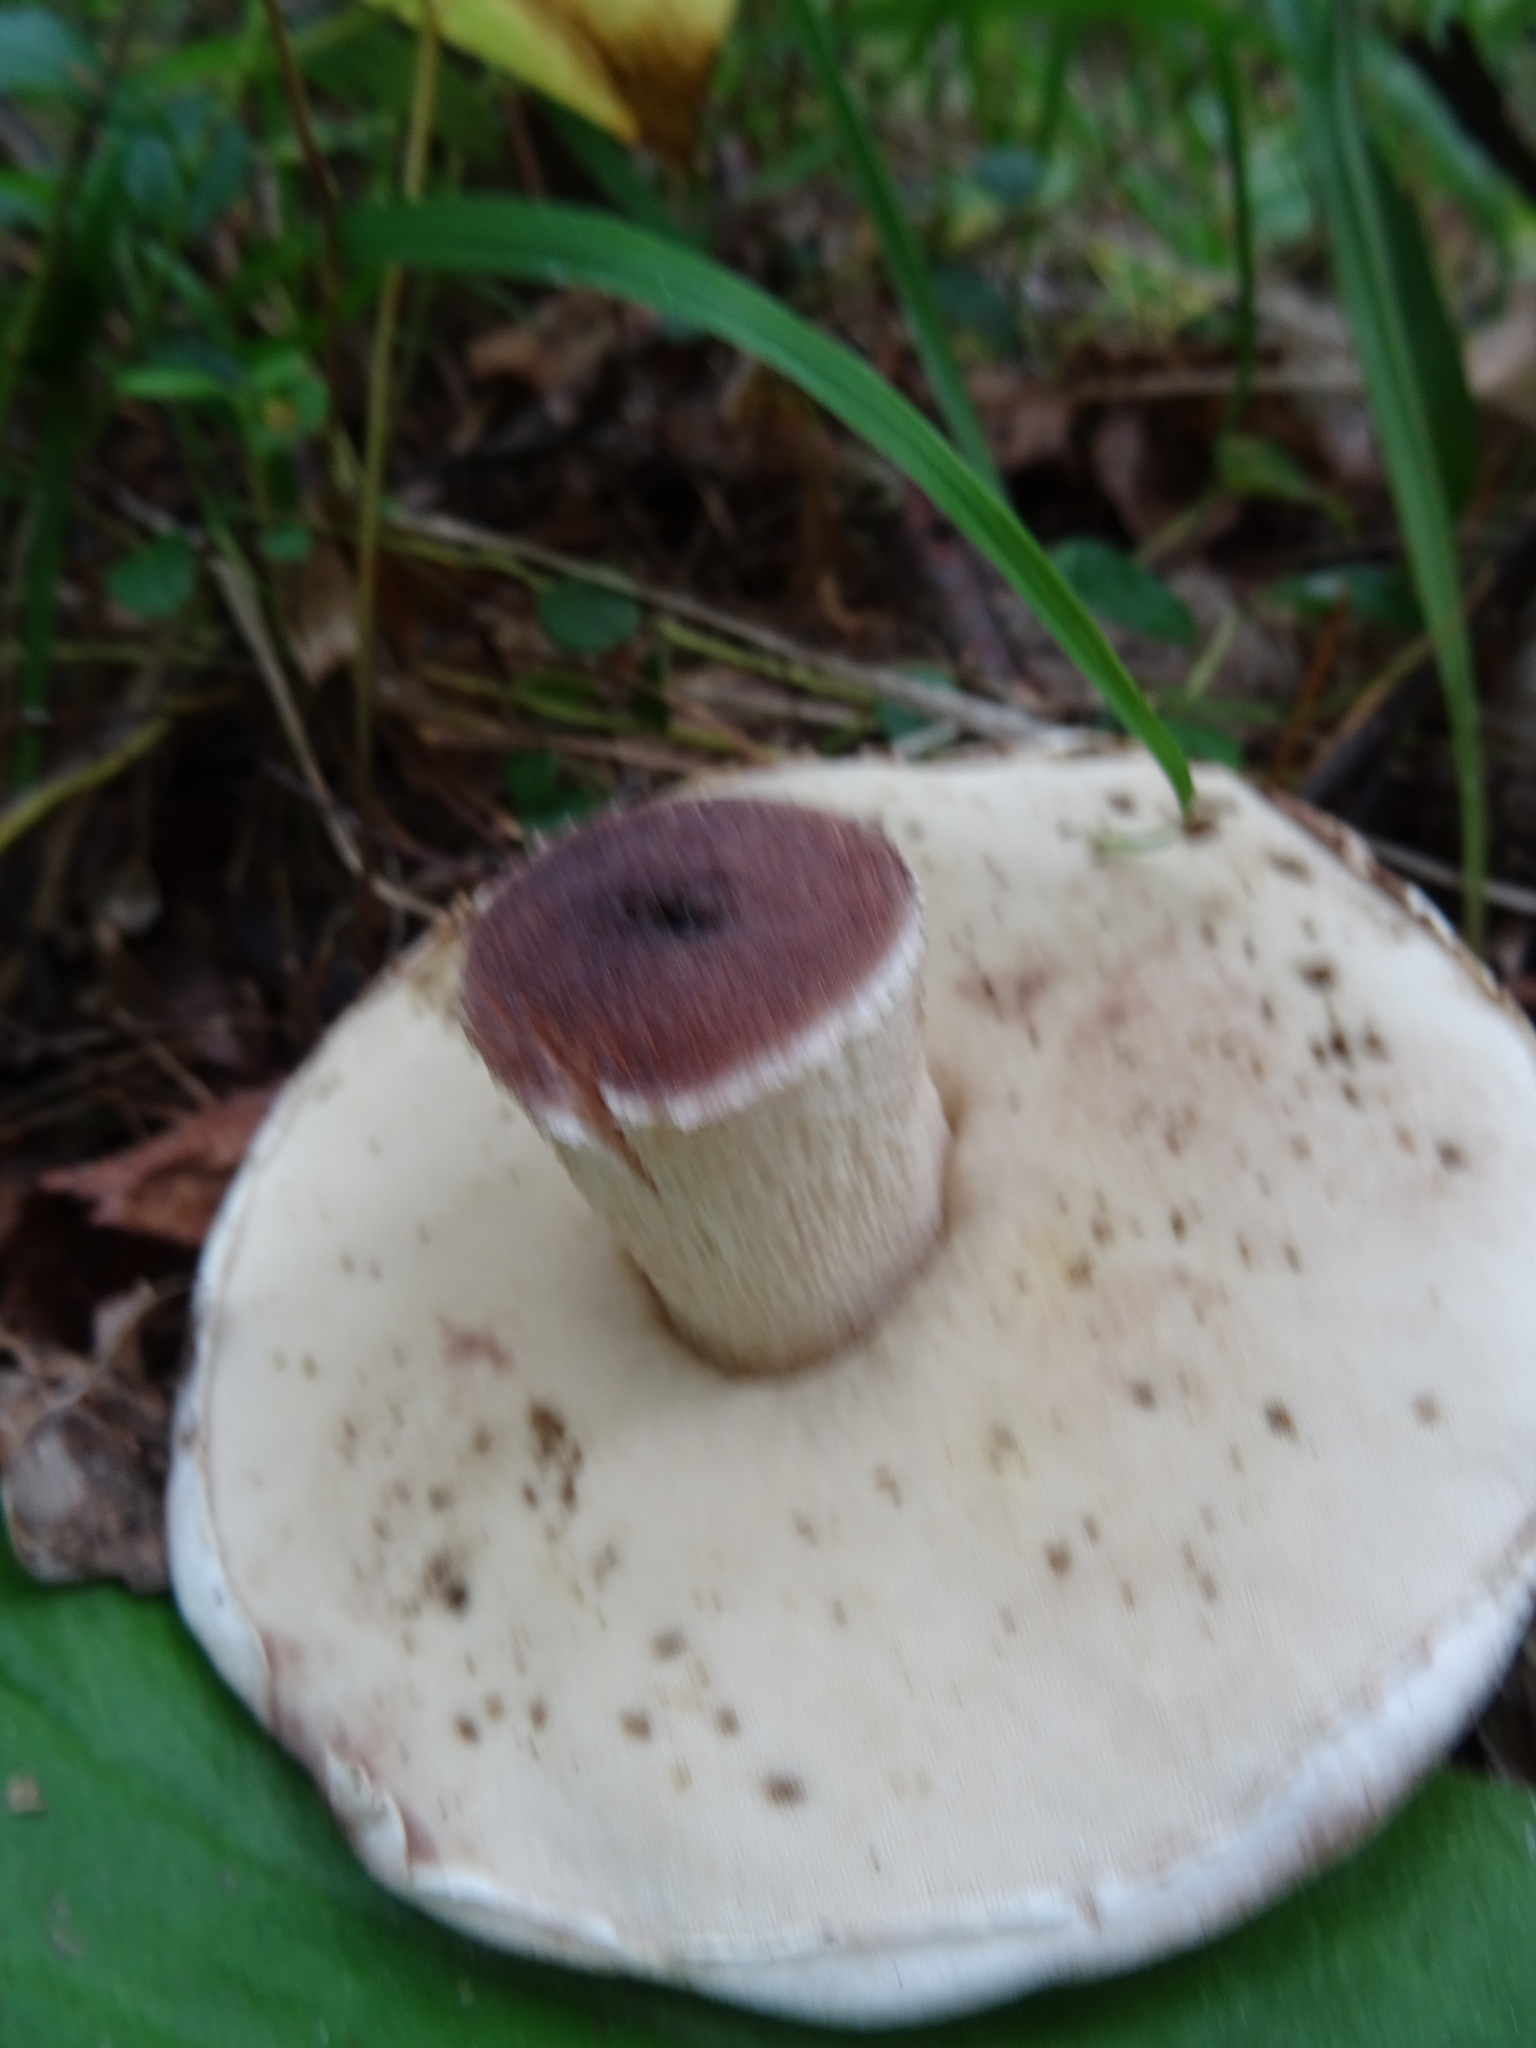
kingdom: Fungi
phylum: Basidiomycota
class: Agaricomycetes
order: Boletales
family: Boletaceae
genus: Leccinum
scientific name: Leccinum versipelle
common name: Orange birch bolete
